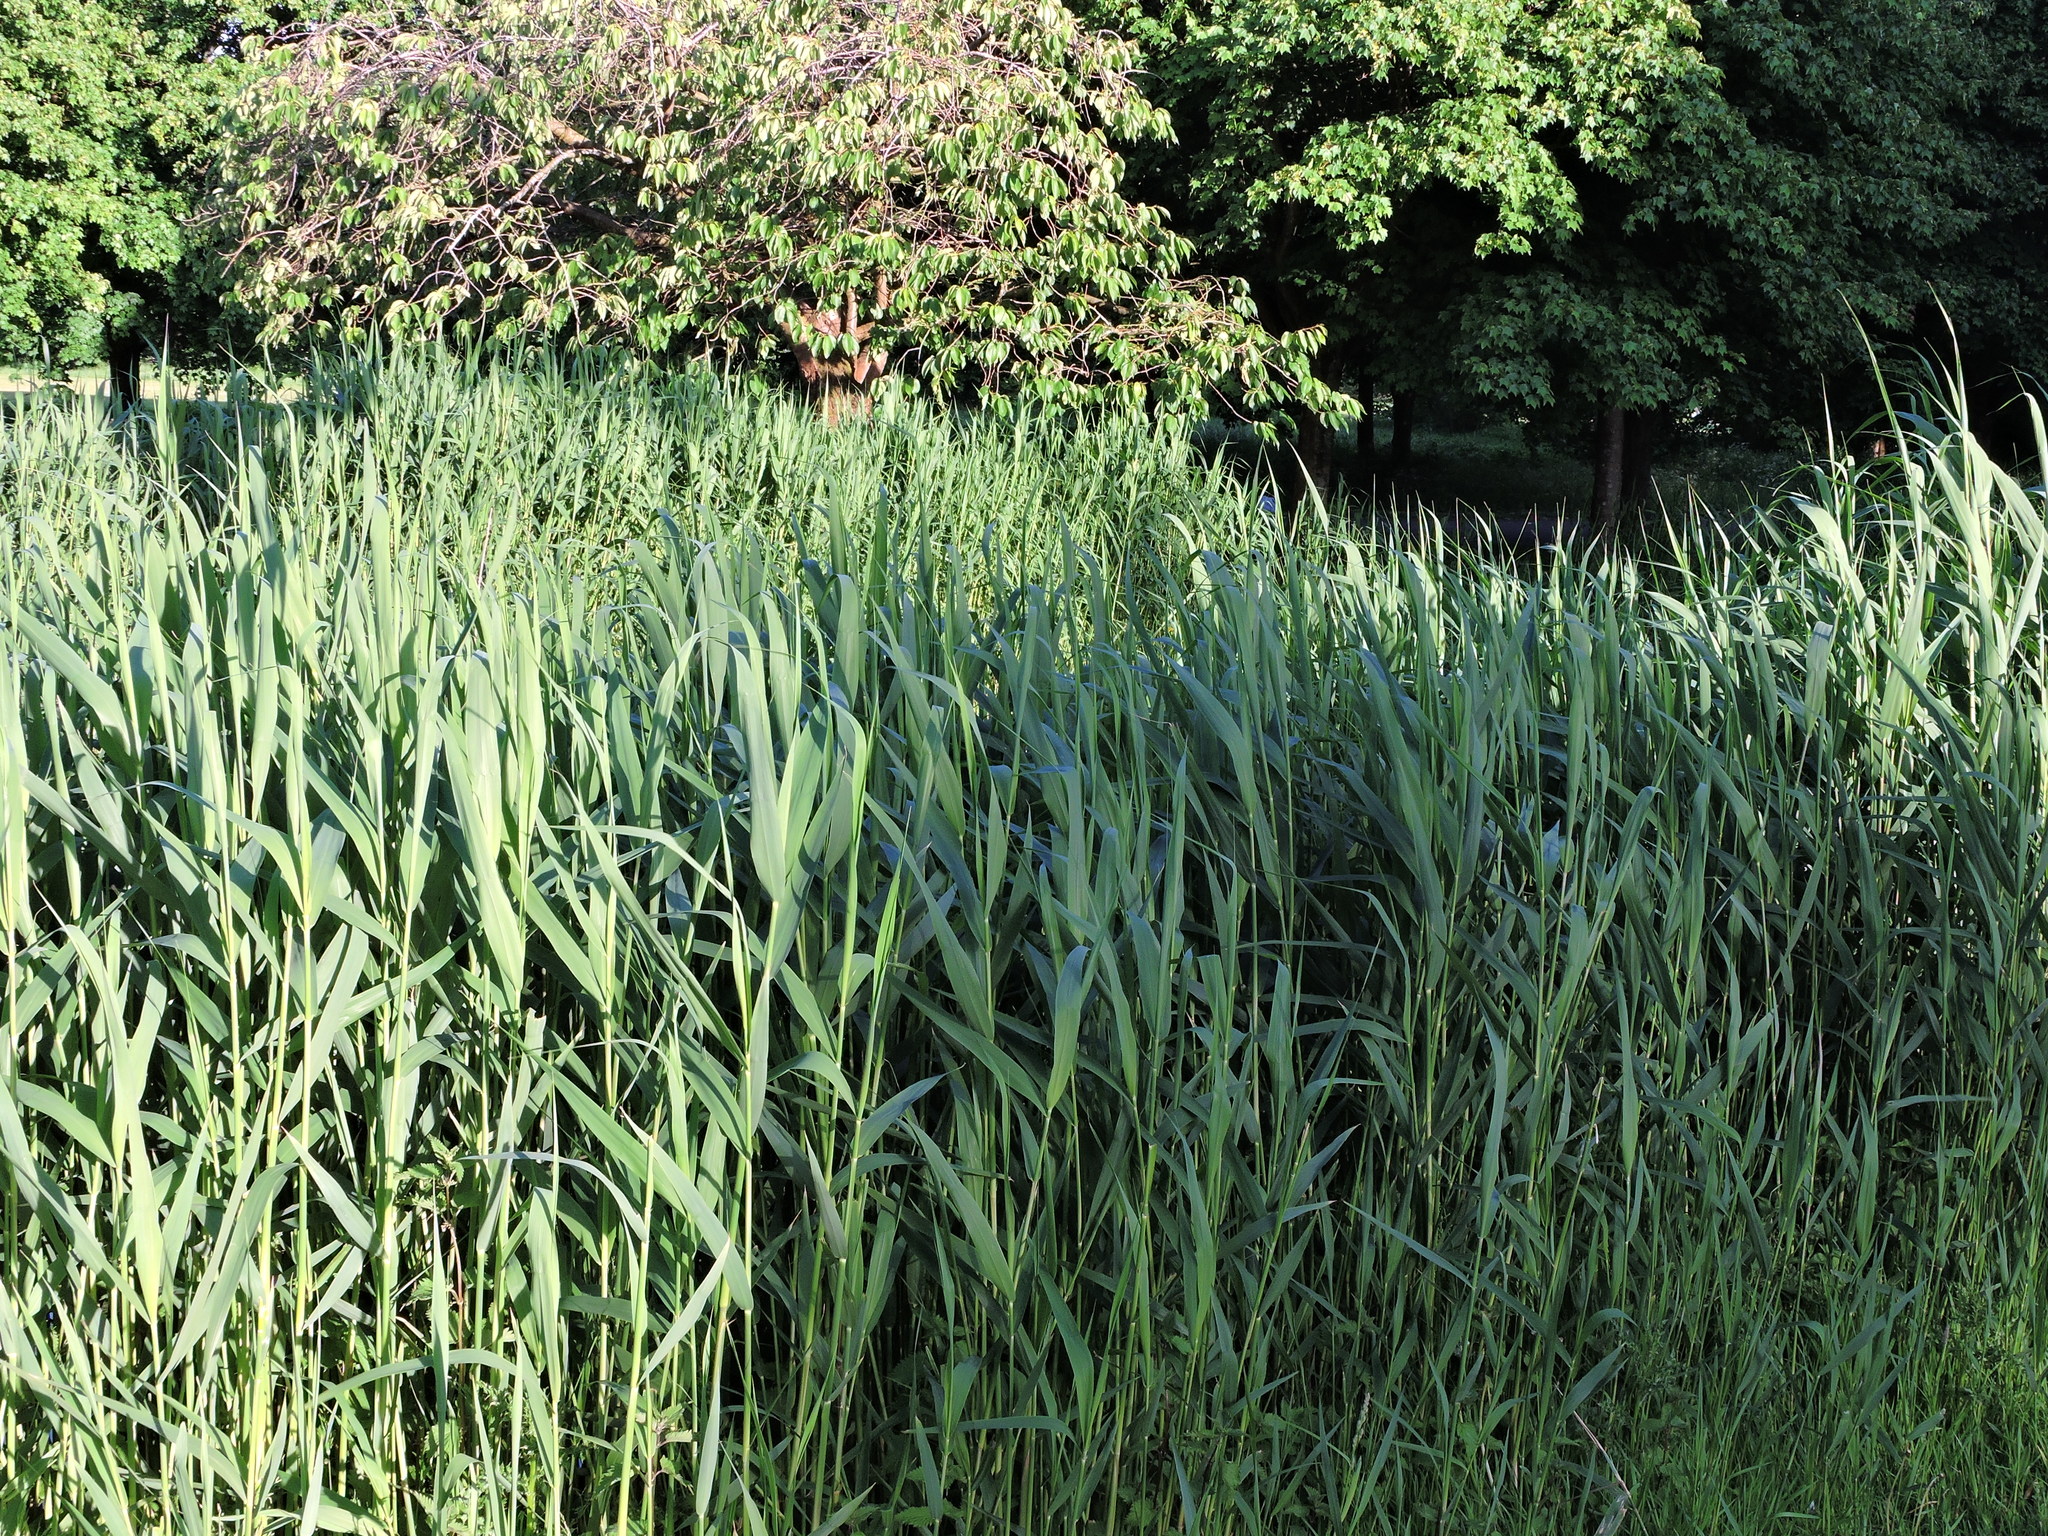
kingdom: Plantae
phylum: Tracheophyta
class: Liliopsida
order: Poales
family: Poaceae
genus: Phragmites
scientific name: Phragmites australis
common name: Common reed
